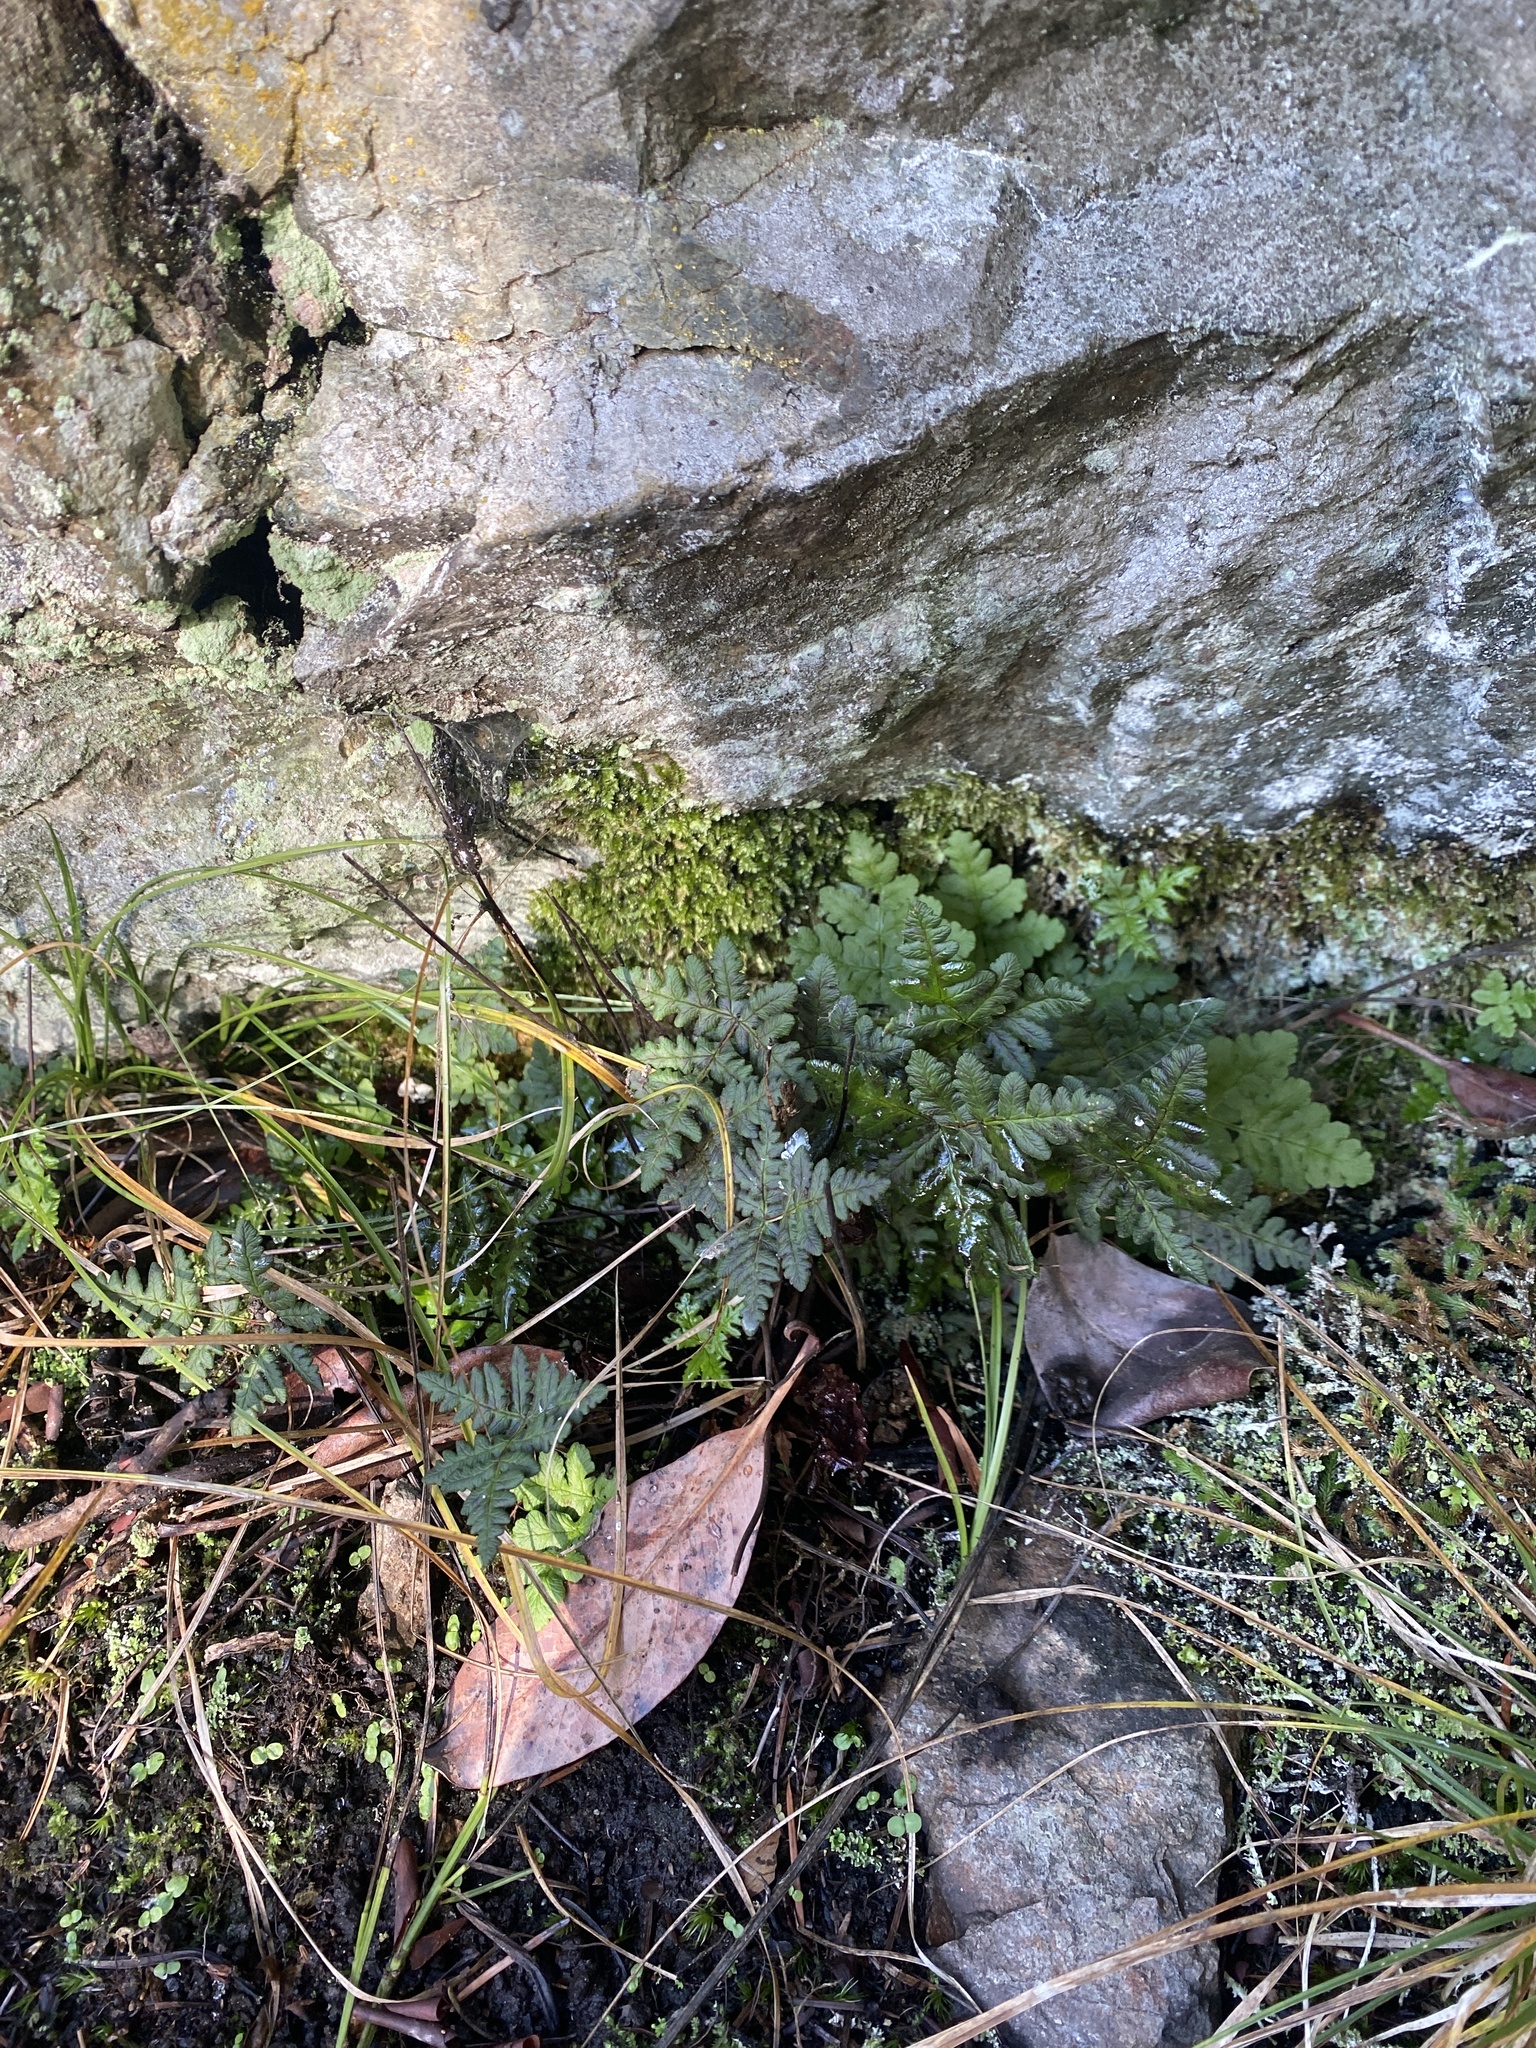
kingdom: Plantae
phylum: Tracheophyta
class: Polypodiopsida
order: Polypodiales
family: Pteridaceae
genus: Pentagramma
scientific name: Pentagramma triangularis
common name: Gold fern
